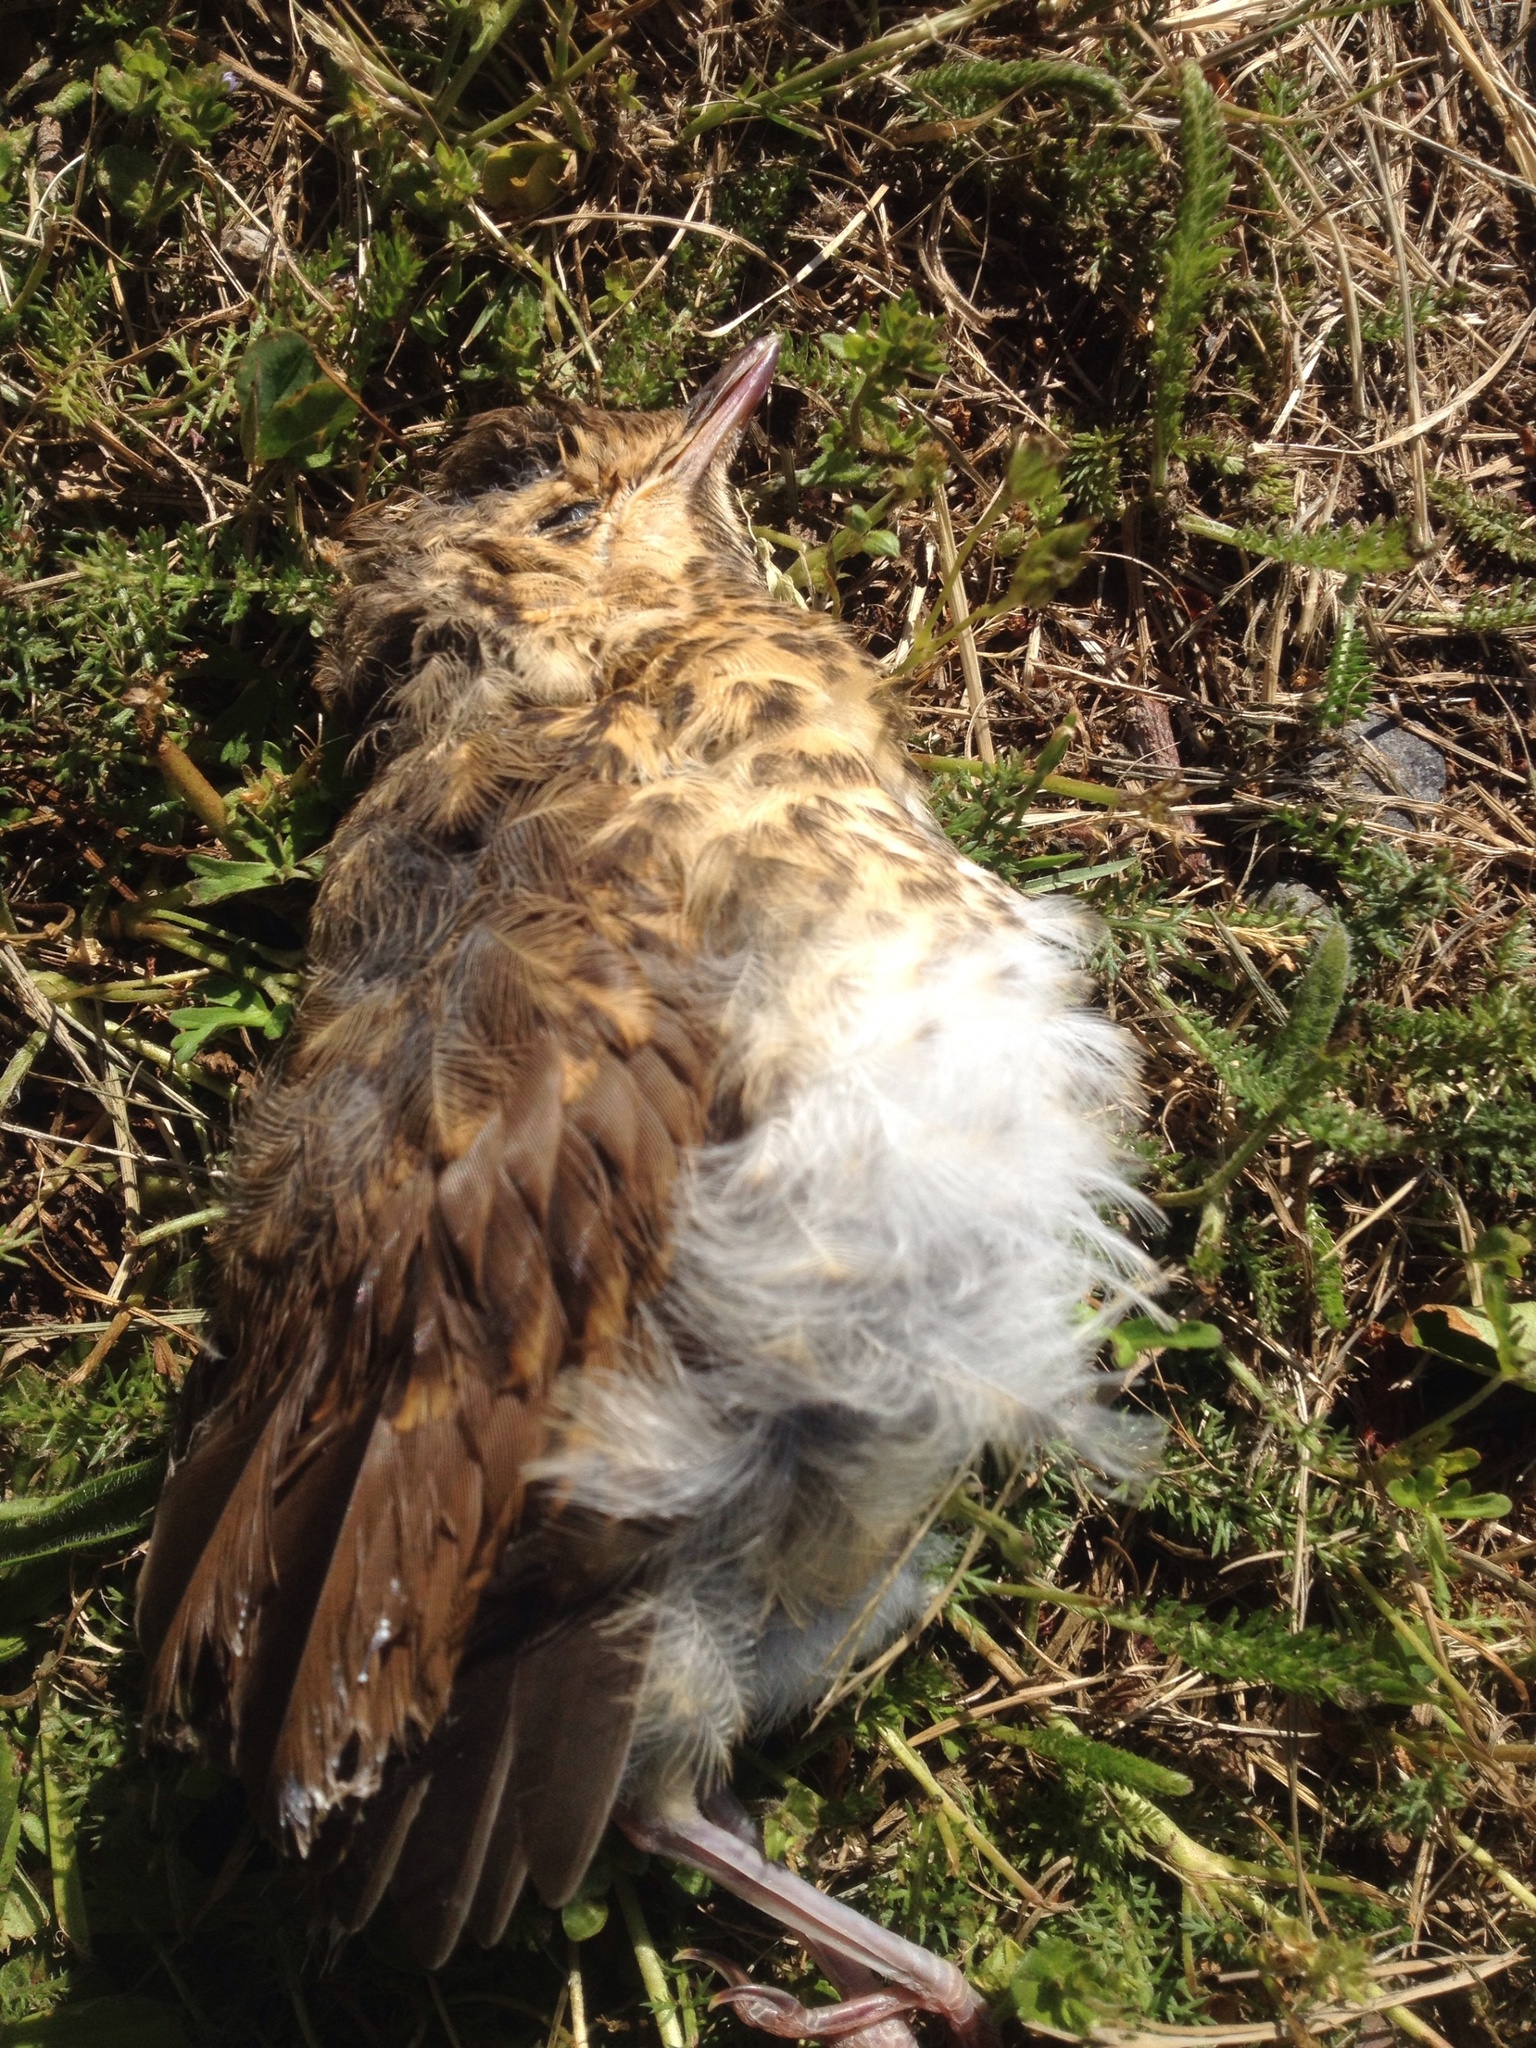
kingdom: Animalia
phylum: Chordata
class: Aves
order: Passeriformes
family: Turdidae
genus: Turdus
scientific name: Turdus philomelos
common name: Song thrush
